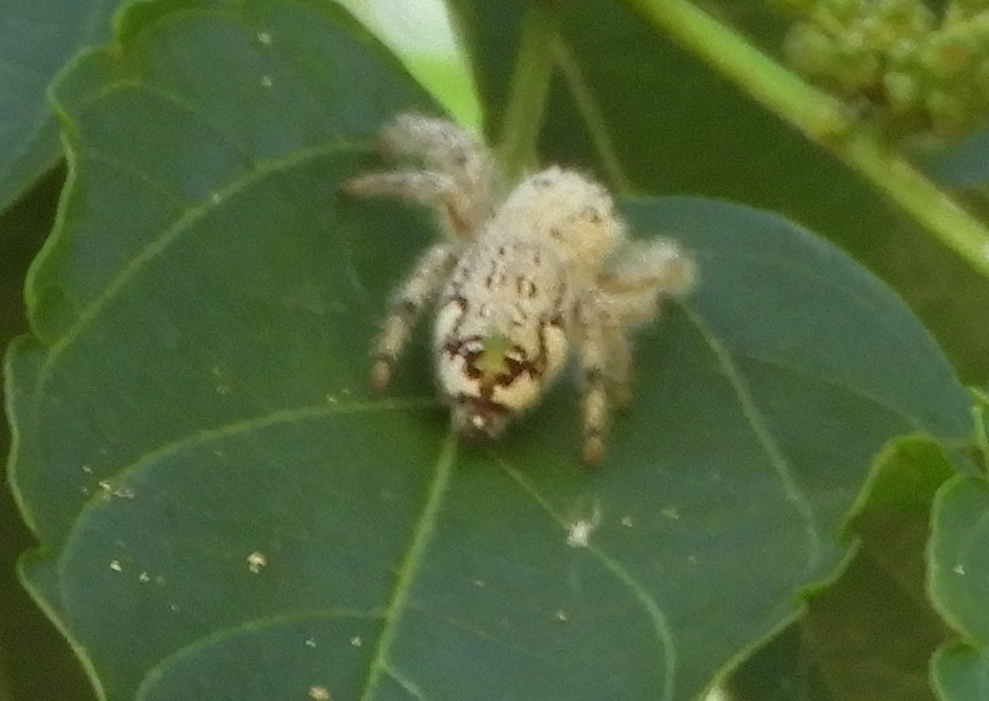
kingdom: Animalia
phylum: Arthropoda
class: Arachnida
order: Araneae
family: Salticidae
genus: Paraphidippus
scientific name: Paraphidippus fartilis
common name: Jumping spiders
